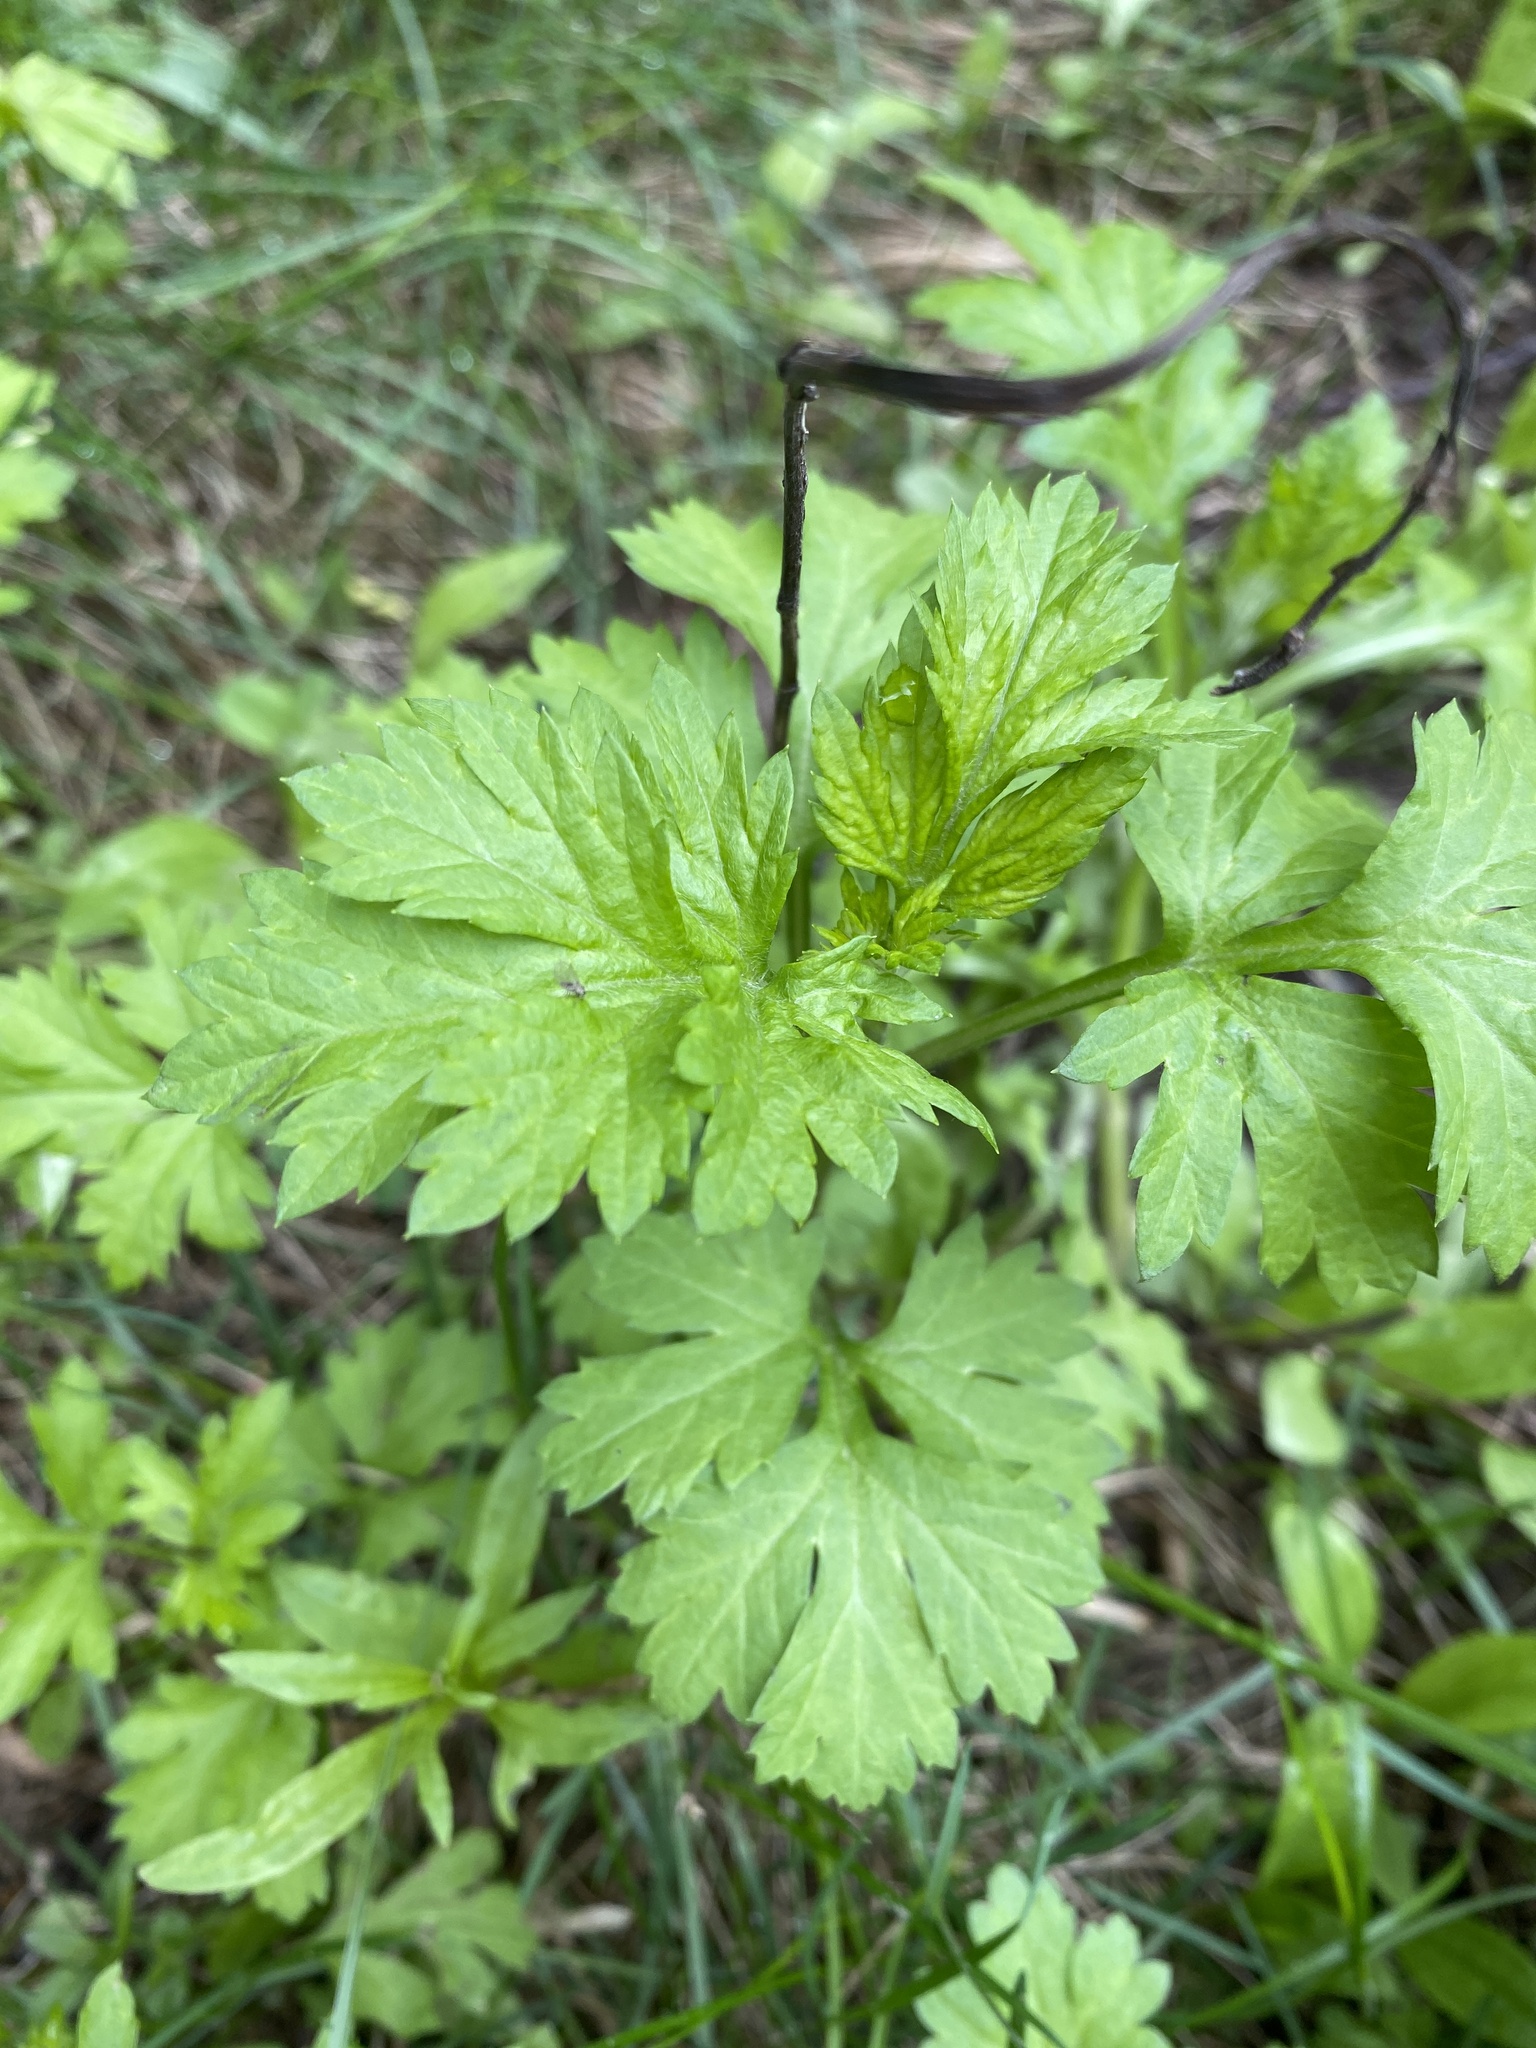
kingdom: Plantae
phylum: Tracheophyta
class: Magnoliopsida
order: Asterales
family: Asteraceae
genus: Artemisia
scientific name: Artemisia vulgaris
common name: Mugwort
